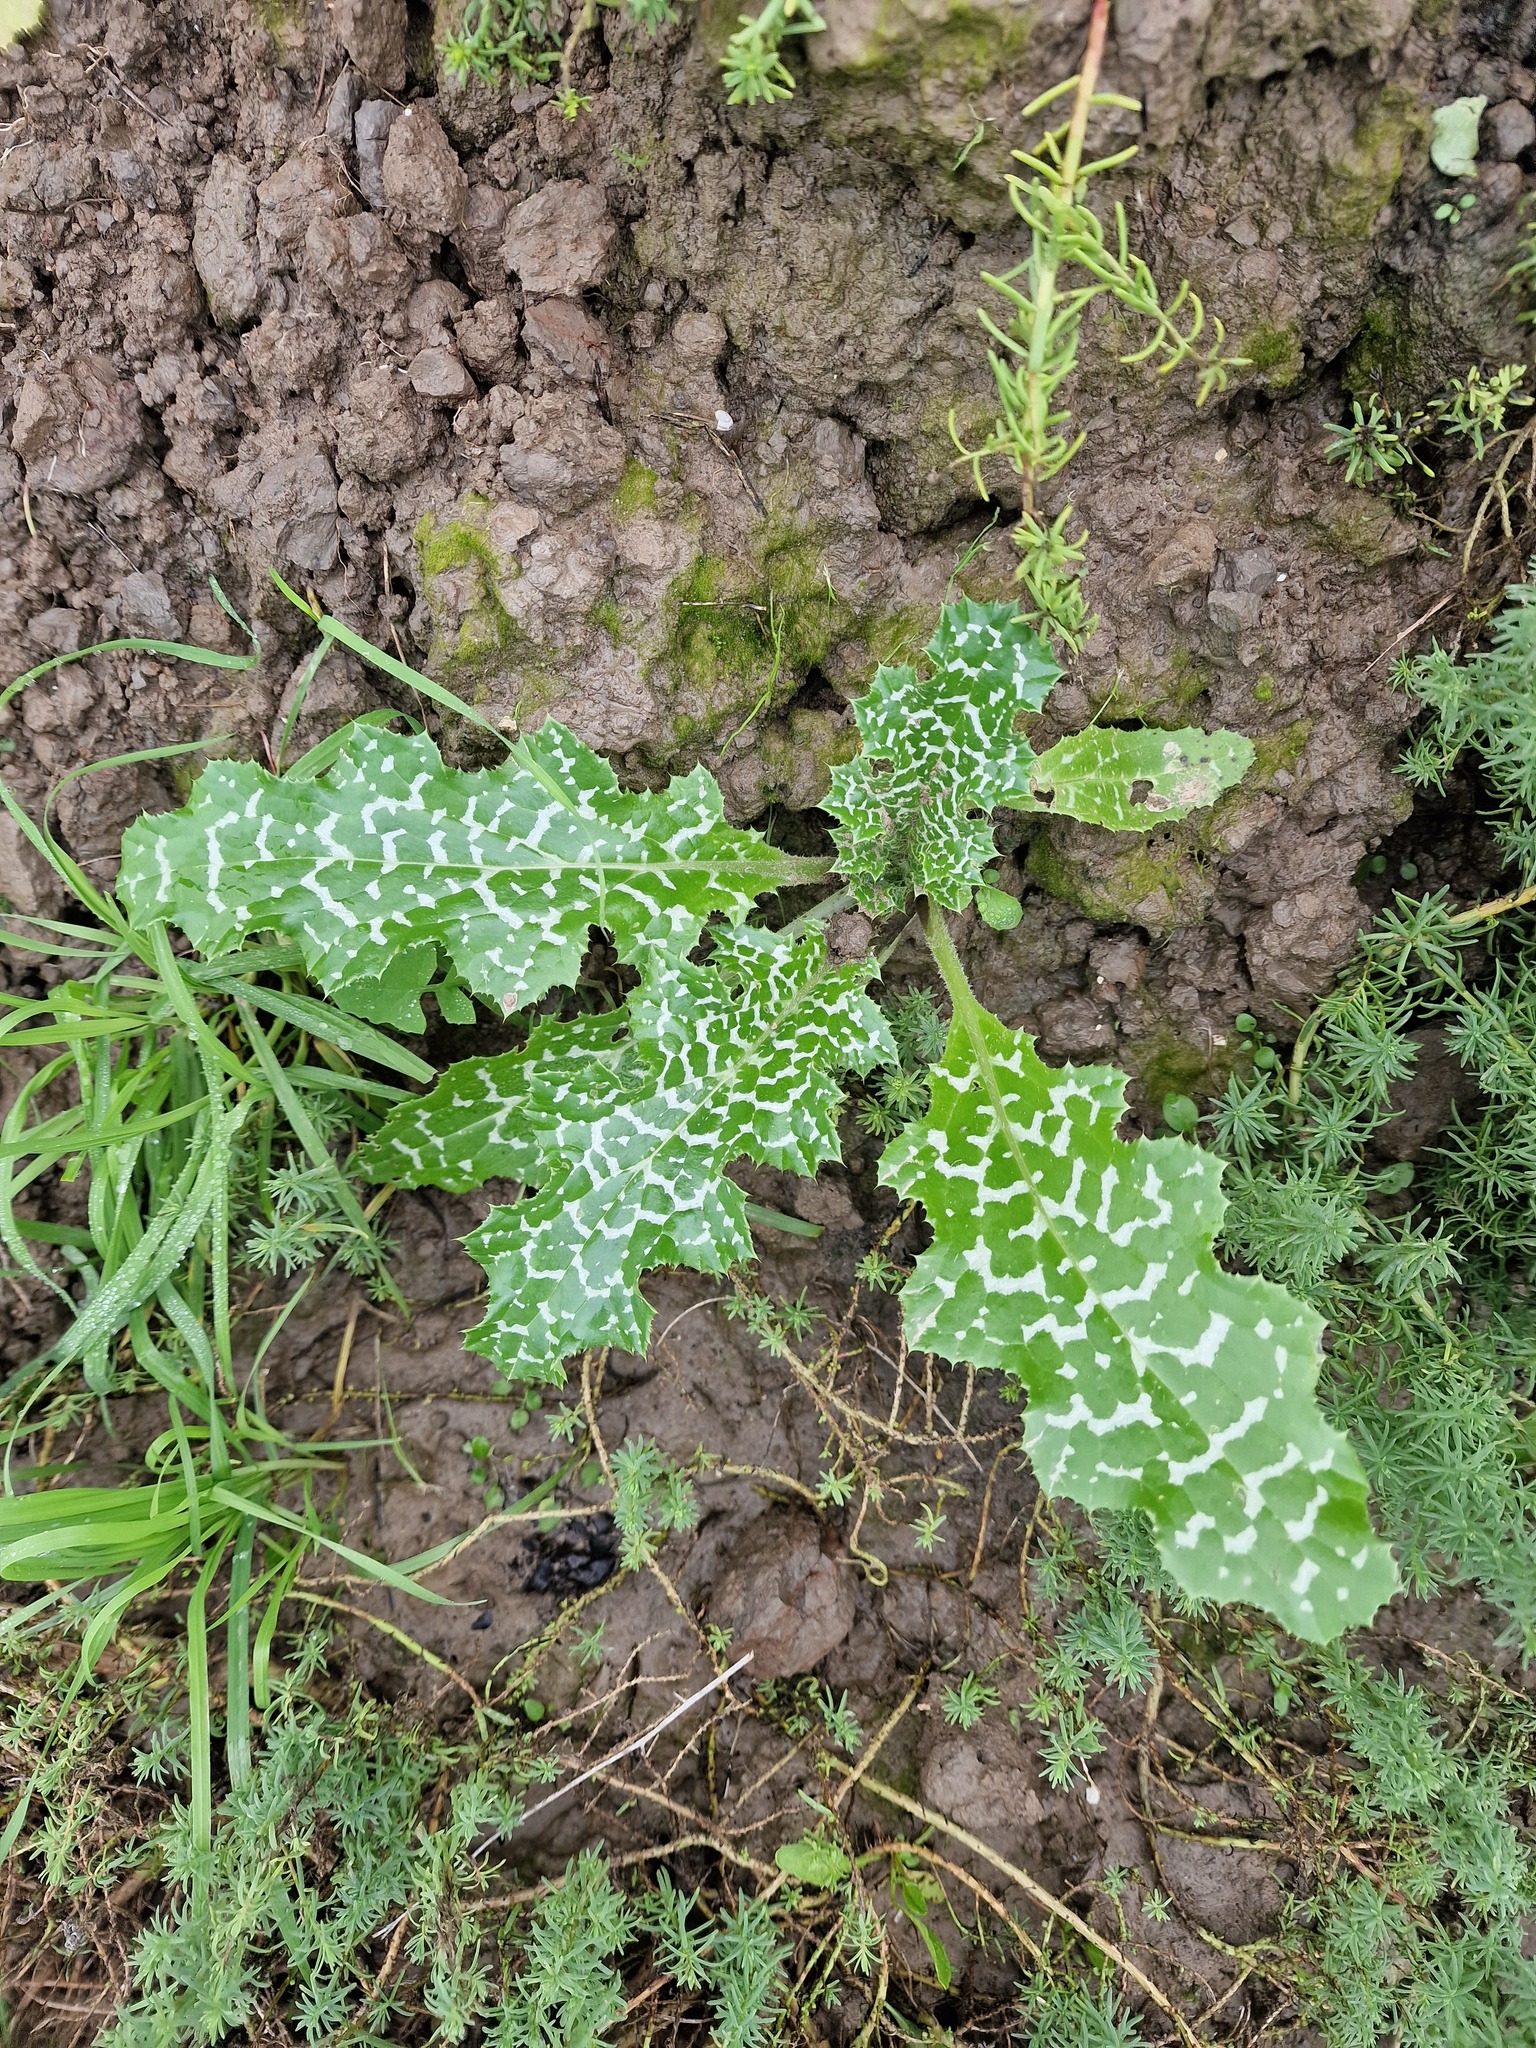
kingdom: Plantae
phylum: Tracheophyta
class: Magnoliopsida
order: Asterales
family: Asteraceae
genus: Silybum
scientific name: Silybum marianum
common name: Milk thistle
